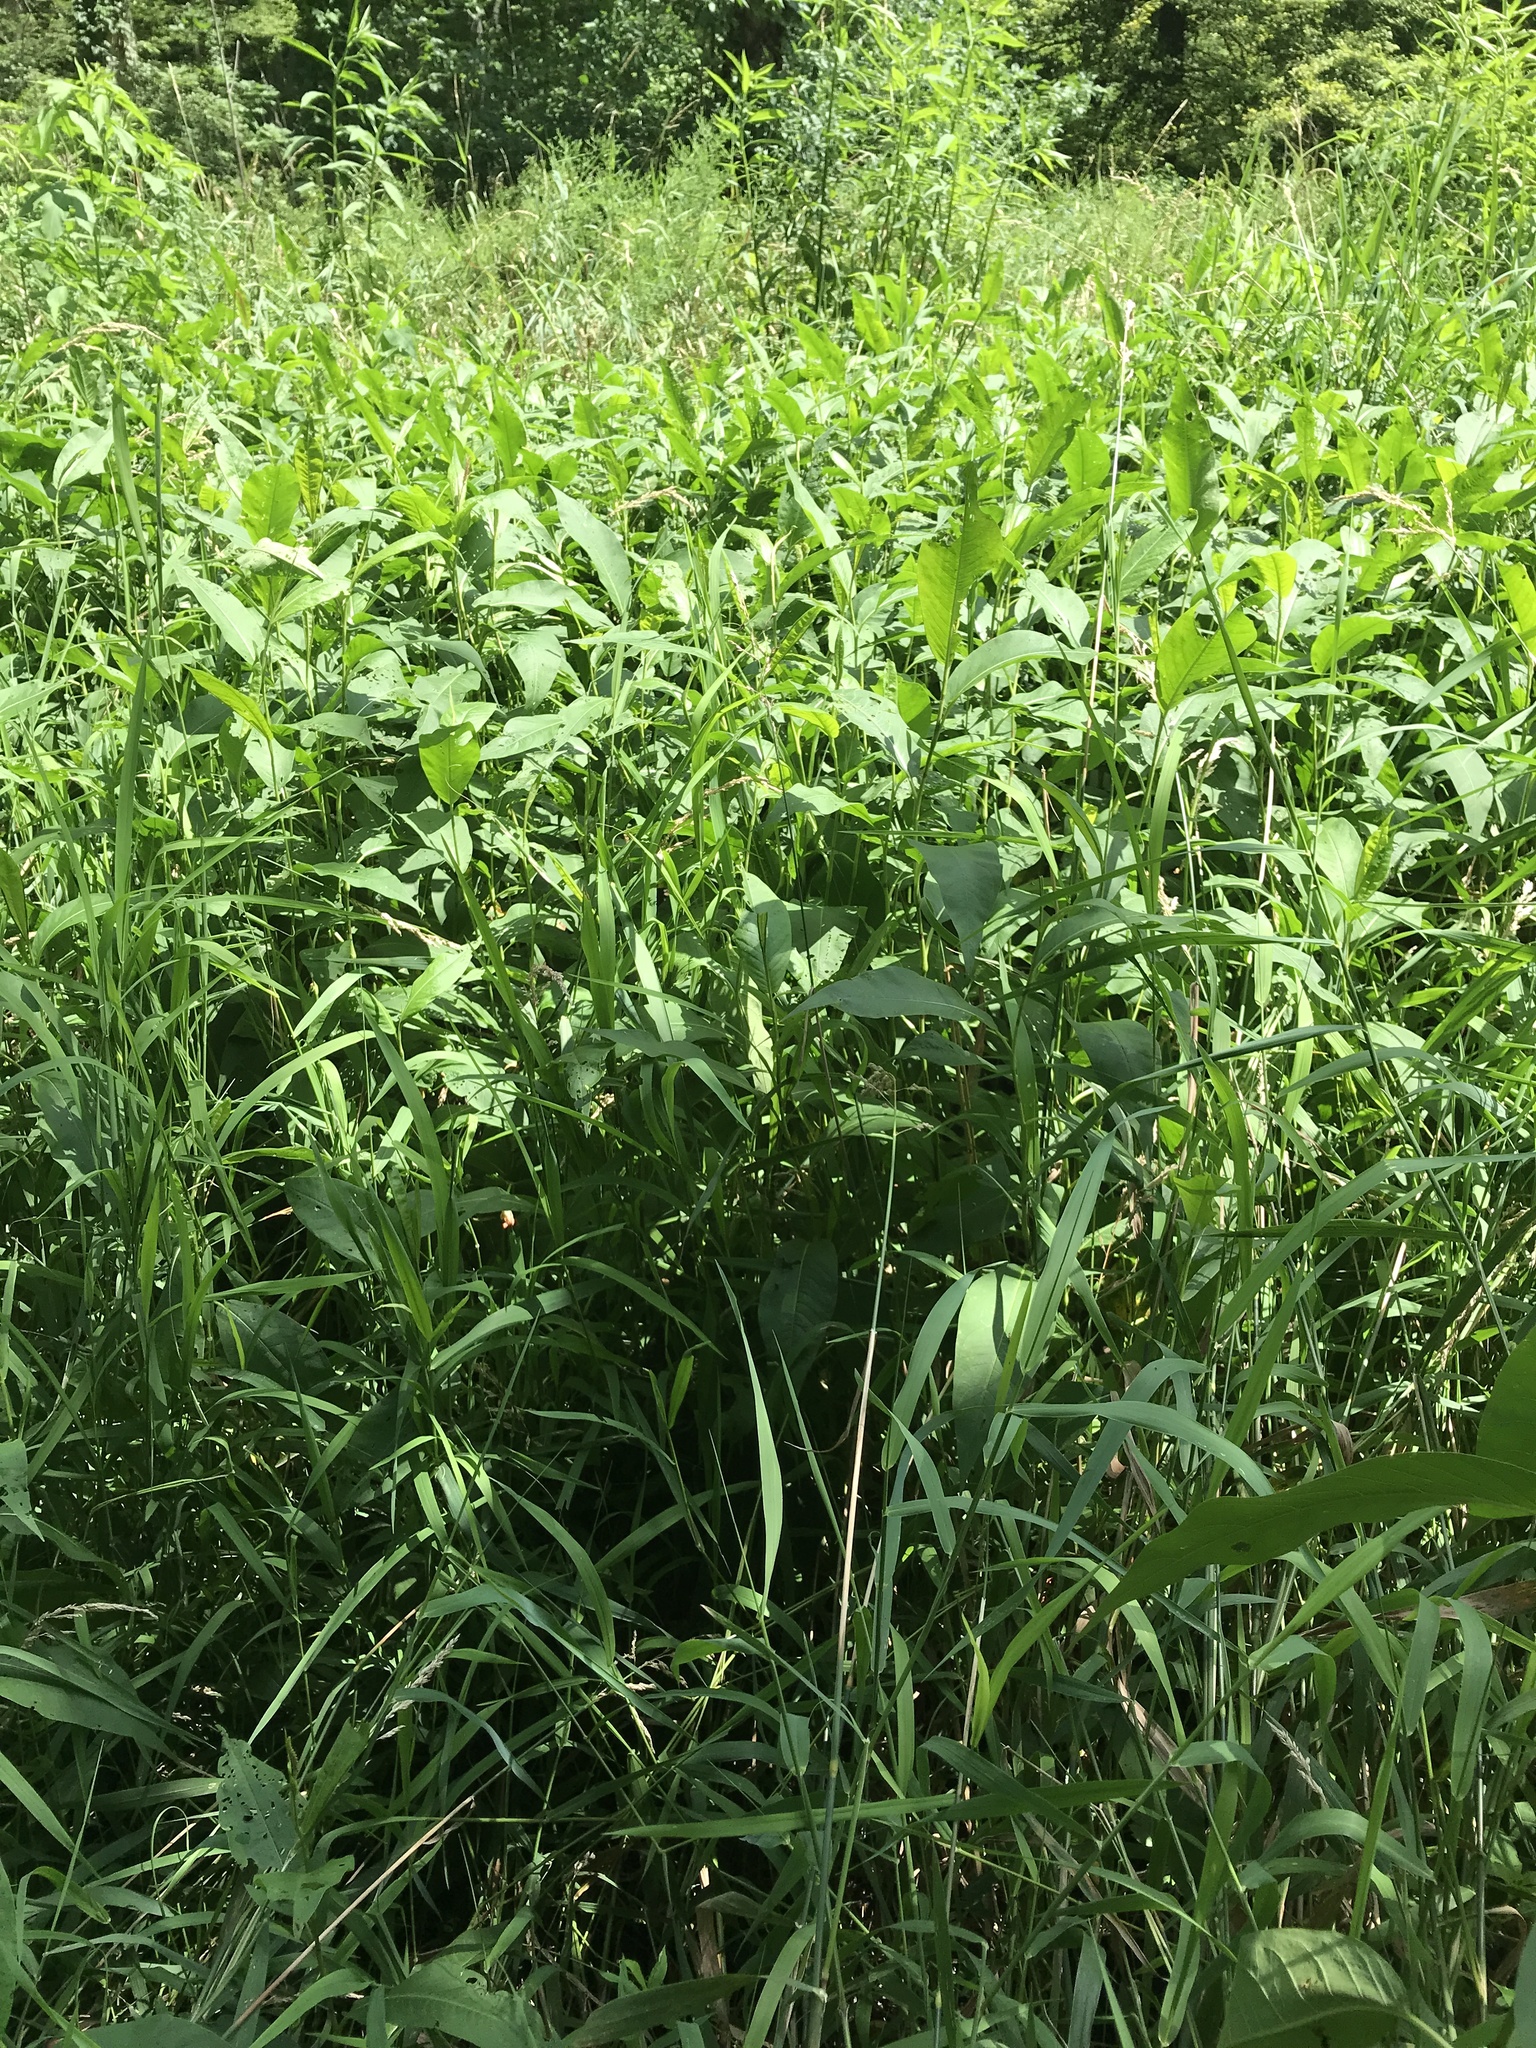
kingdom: Plantae
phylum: Tracheophyta
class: Magnoliopsida
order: Caryophyllales
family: Polygonaceae
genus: Persicaria
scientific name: Persicaria amphibia
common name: Amphibious bistort
